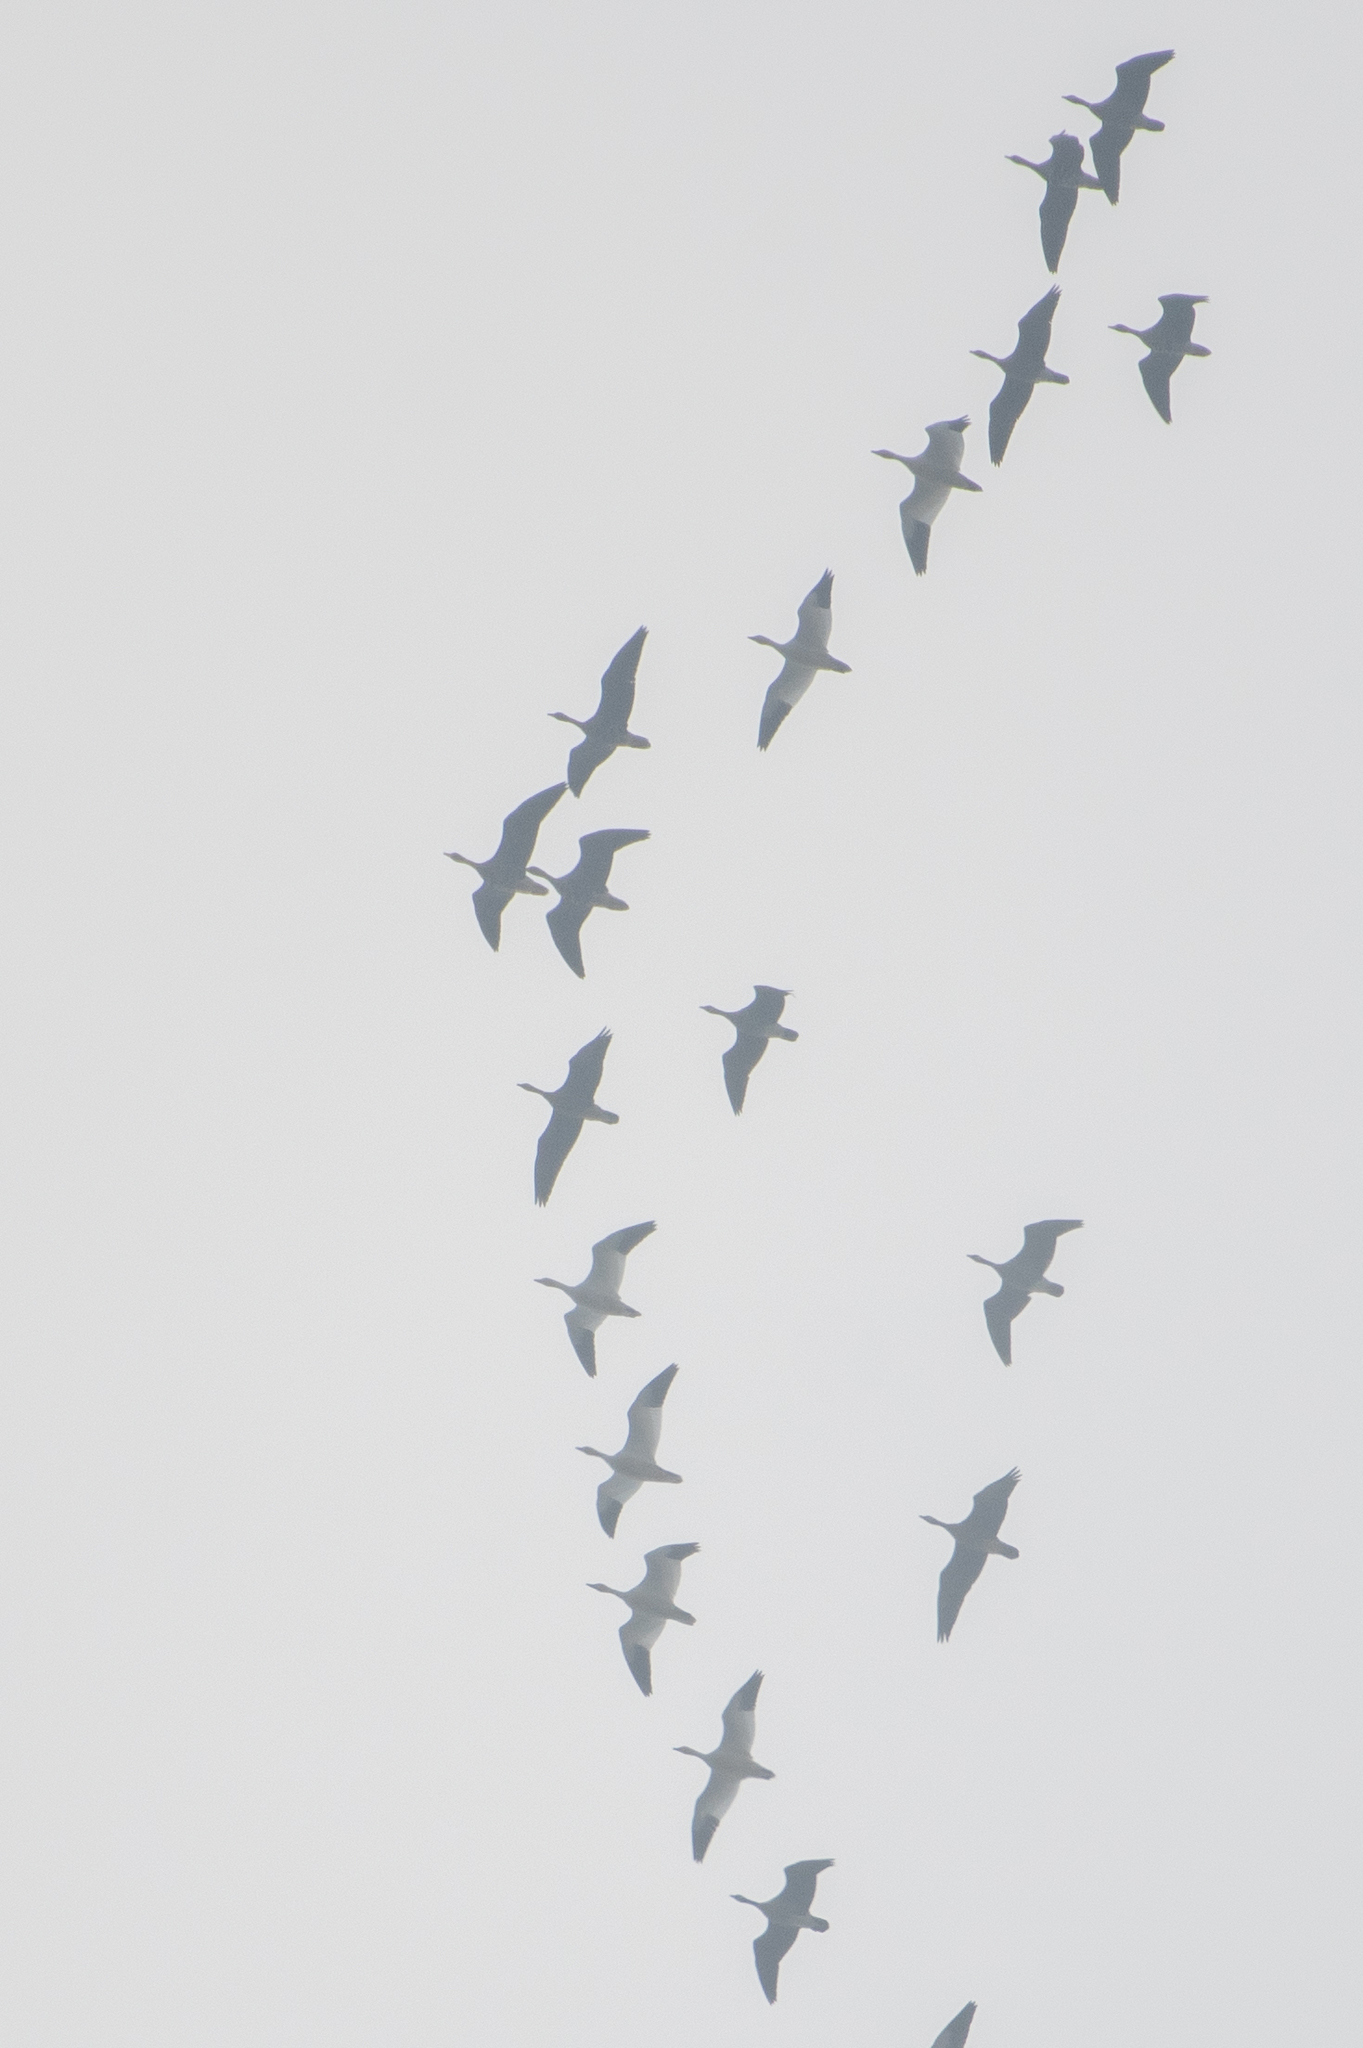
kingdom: Animalia
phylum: Chordata
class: Aves
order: Anseriformes
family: Anatidae
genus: Anser
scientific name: Anser caerulescens
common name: Snow goose
